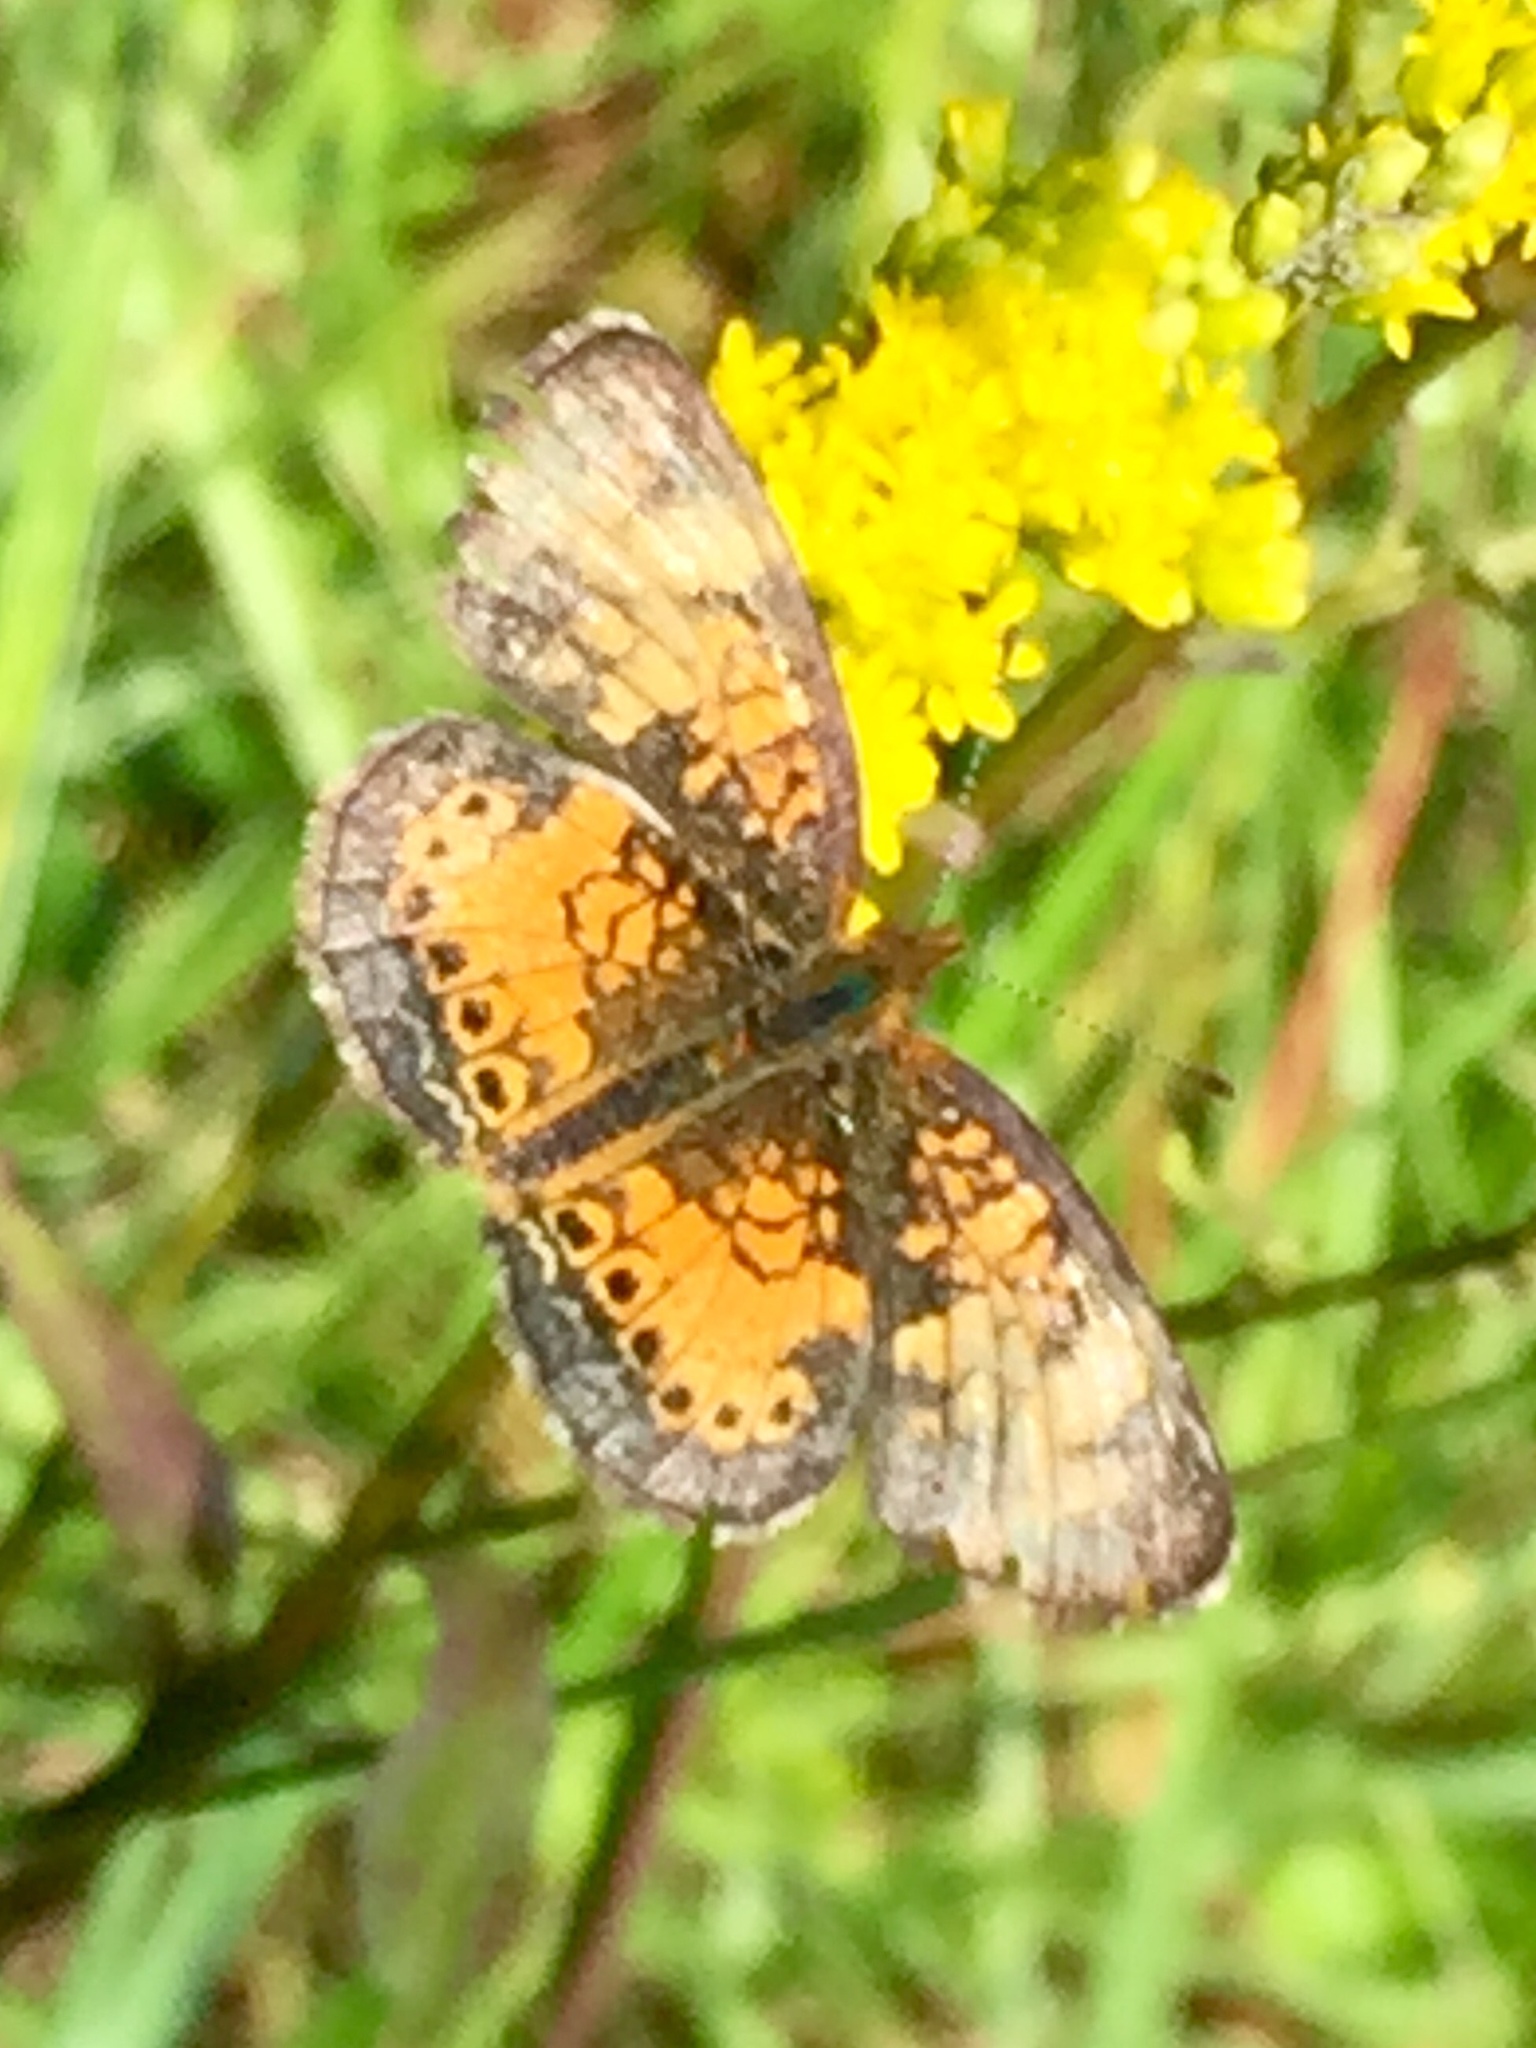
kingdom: Animalia
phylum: Arthropoda
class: Insecta
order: Lepidoptera
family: Nymphalidae
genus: Phyciodes
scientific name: Phyciodes tharos
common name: Pearl crescent
